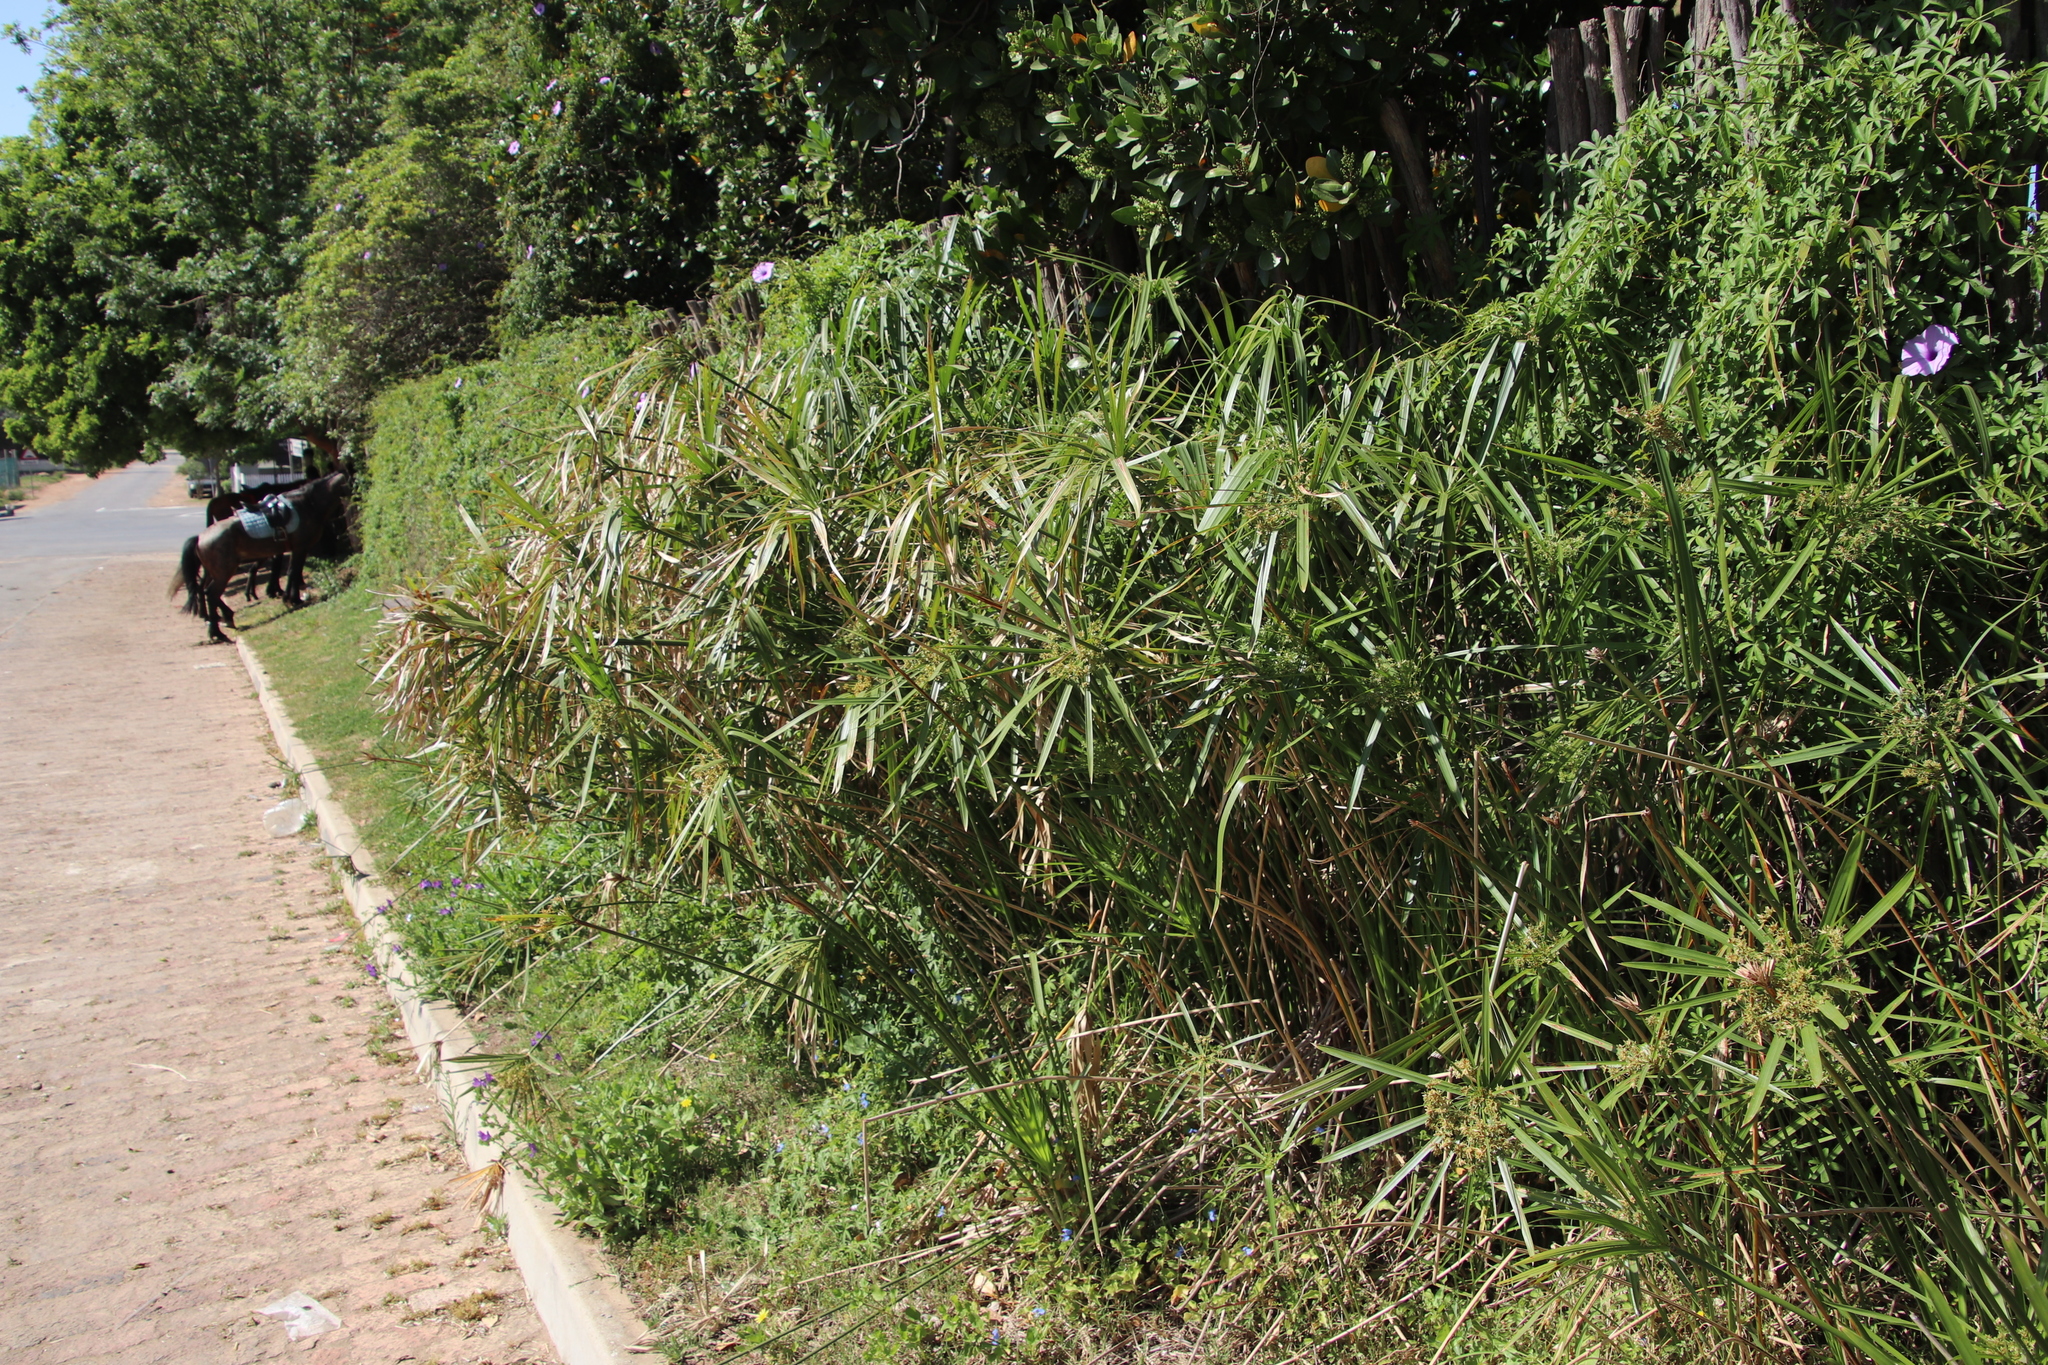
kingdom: Plantae
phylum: Tracheophyta
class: Liliopsida
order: Poales
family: Cyperaceae
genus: Cyperus
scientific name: Cyperus textilis
